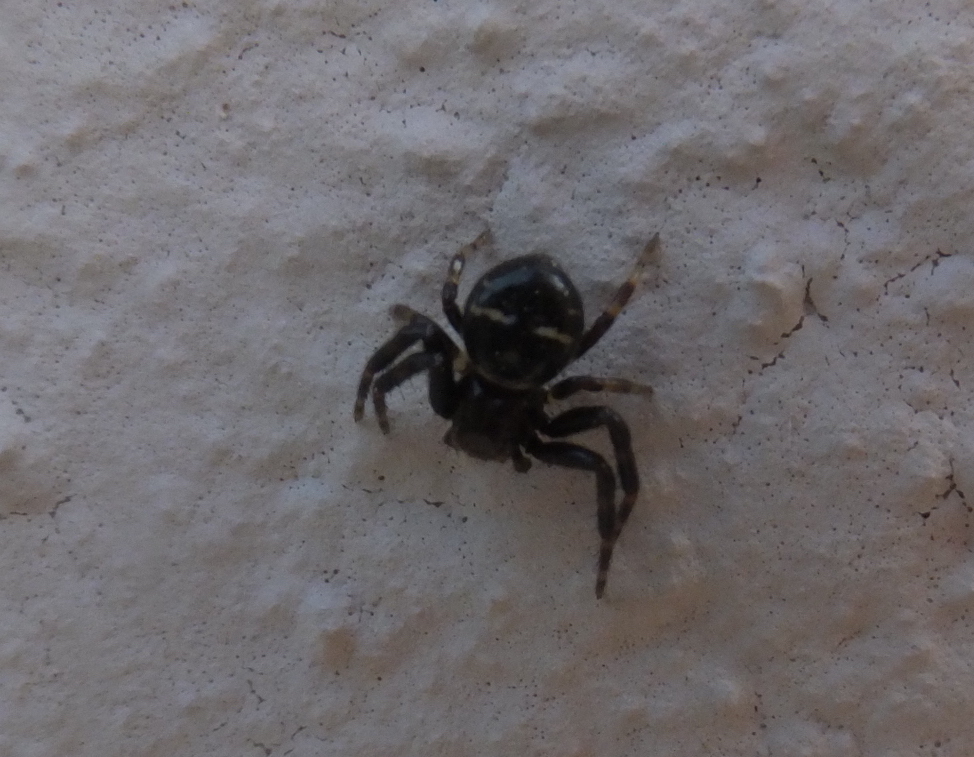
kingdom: Animalia
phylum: Arthropoda
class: Arachnida
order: Araneae
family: Thomisidae
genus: Synema
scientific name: Synema globosum
